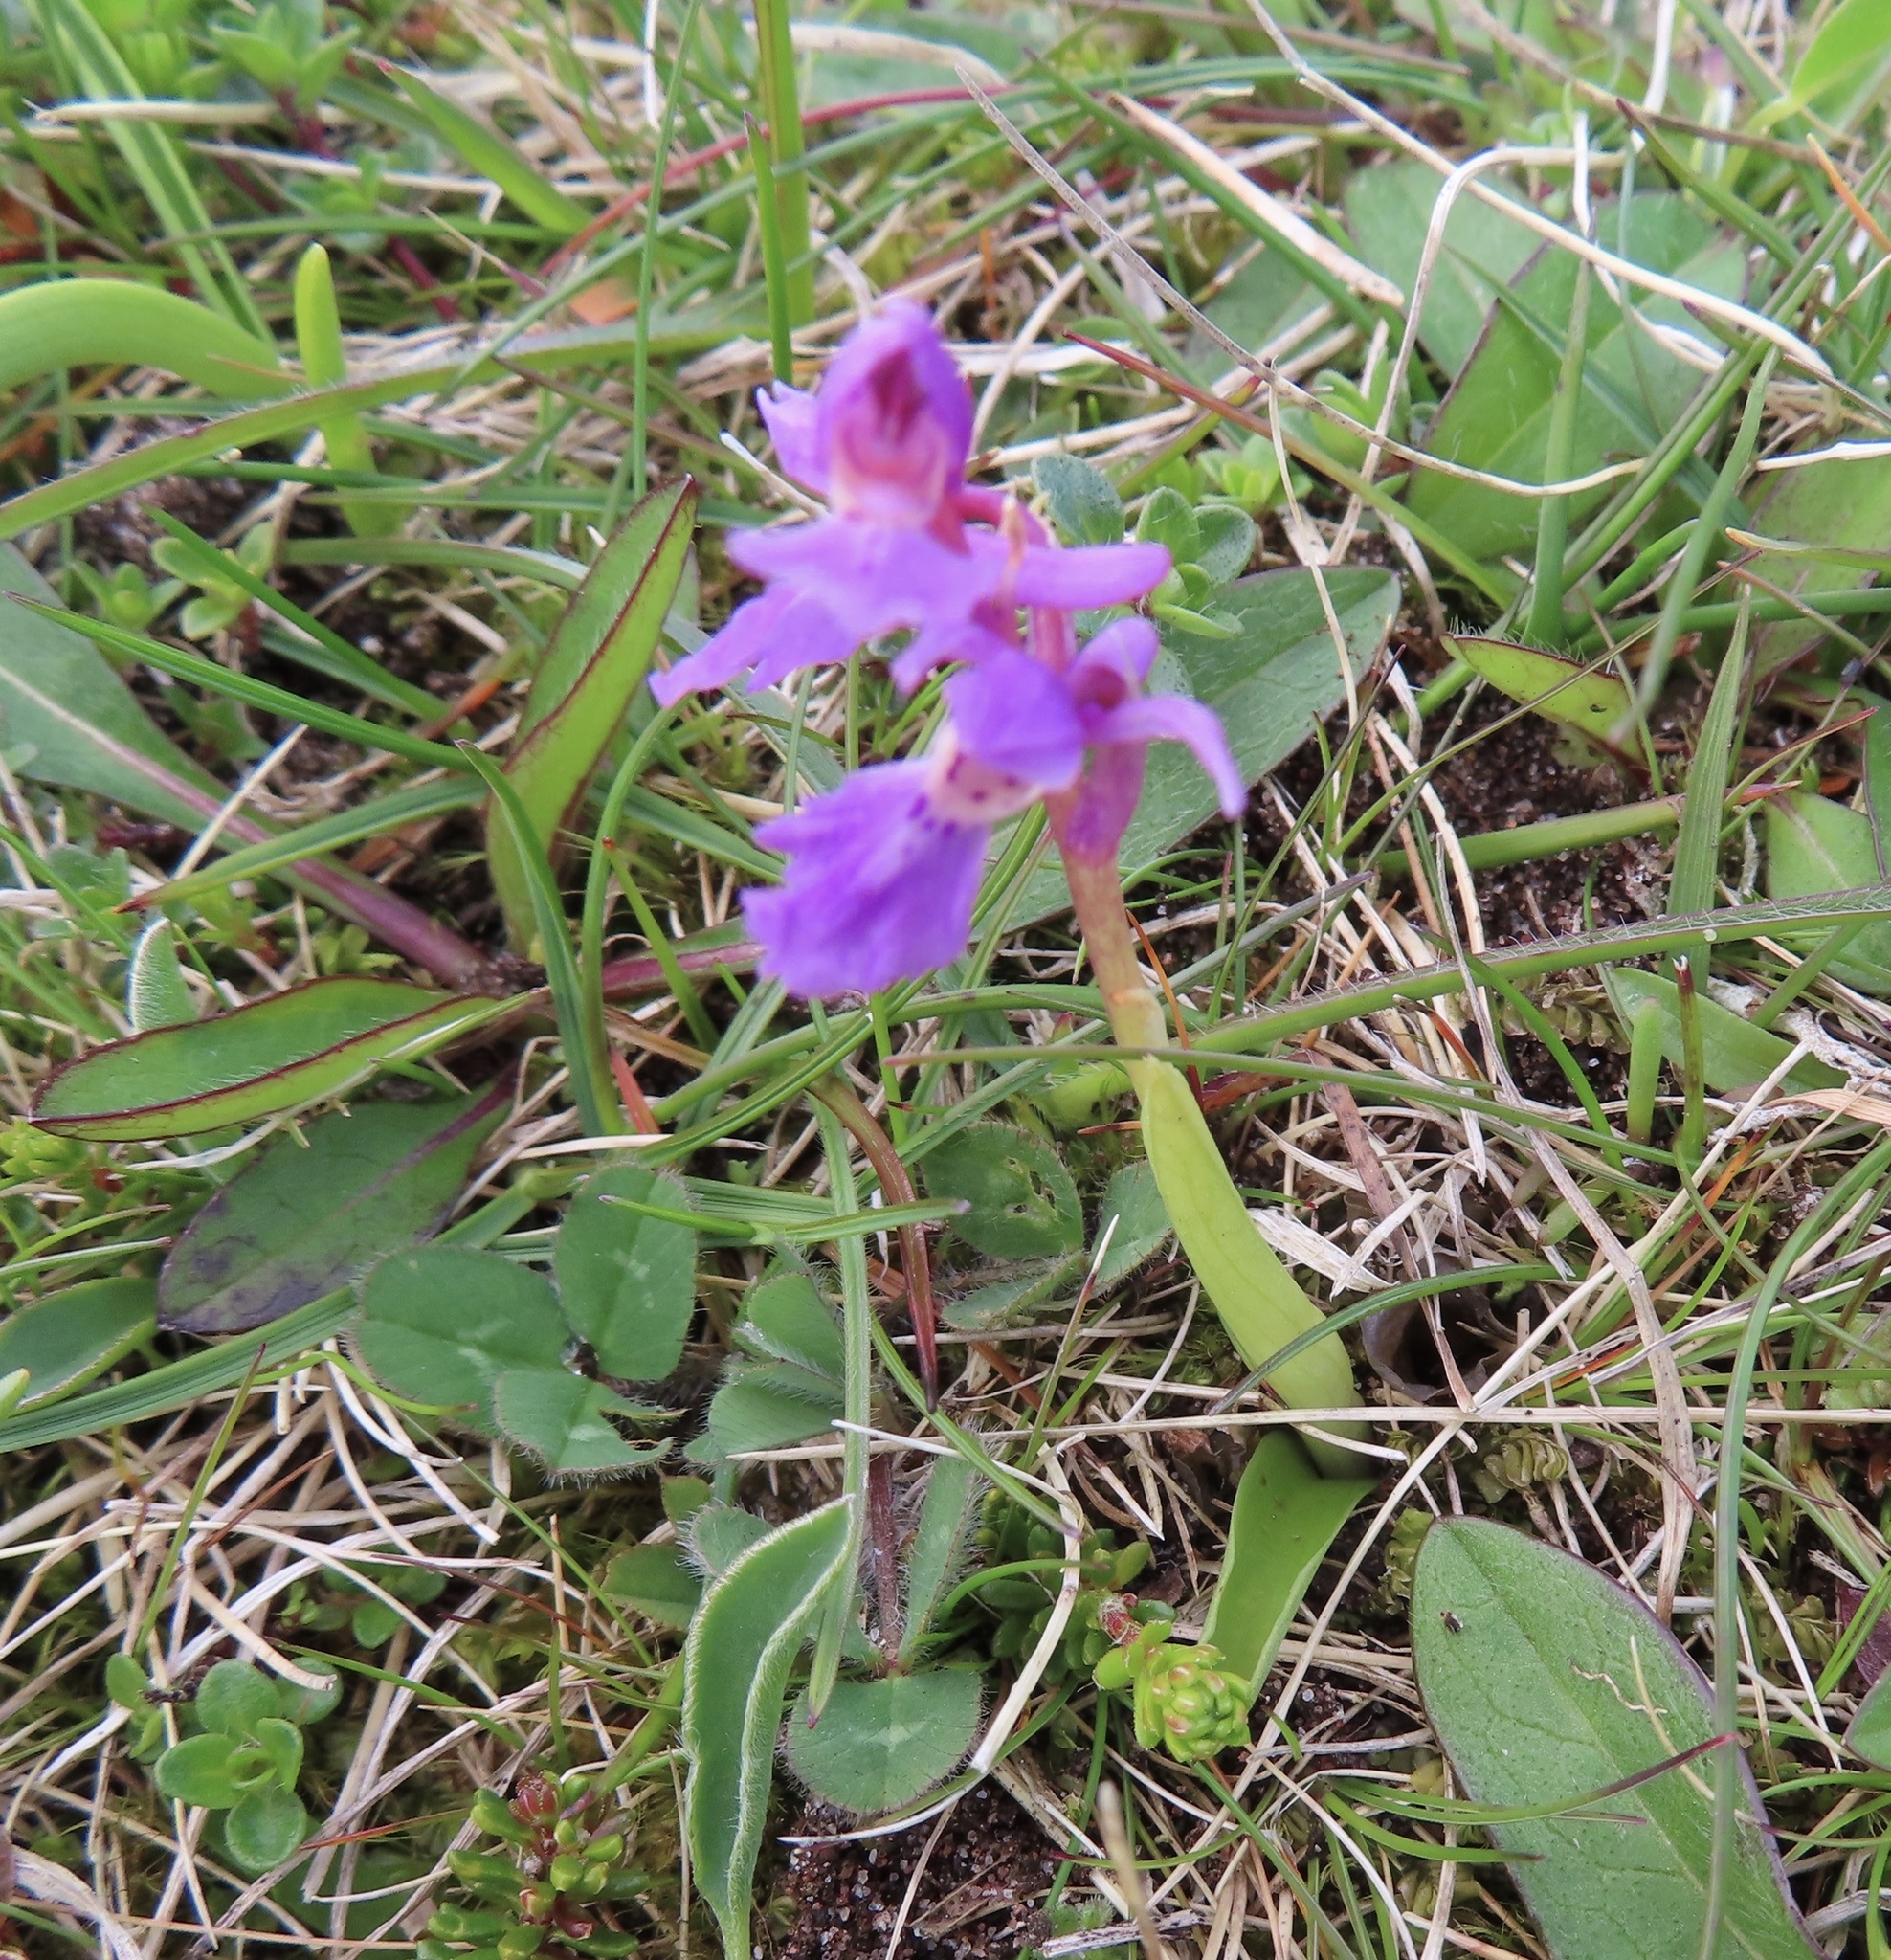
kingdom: Plantae
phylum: Tracheophyta
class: Liliopsida
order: Asparagales
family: Orchidaceae
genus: Orchis
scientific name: Orchis mascula
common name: Early-purple orchid
